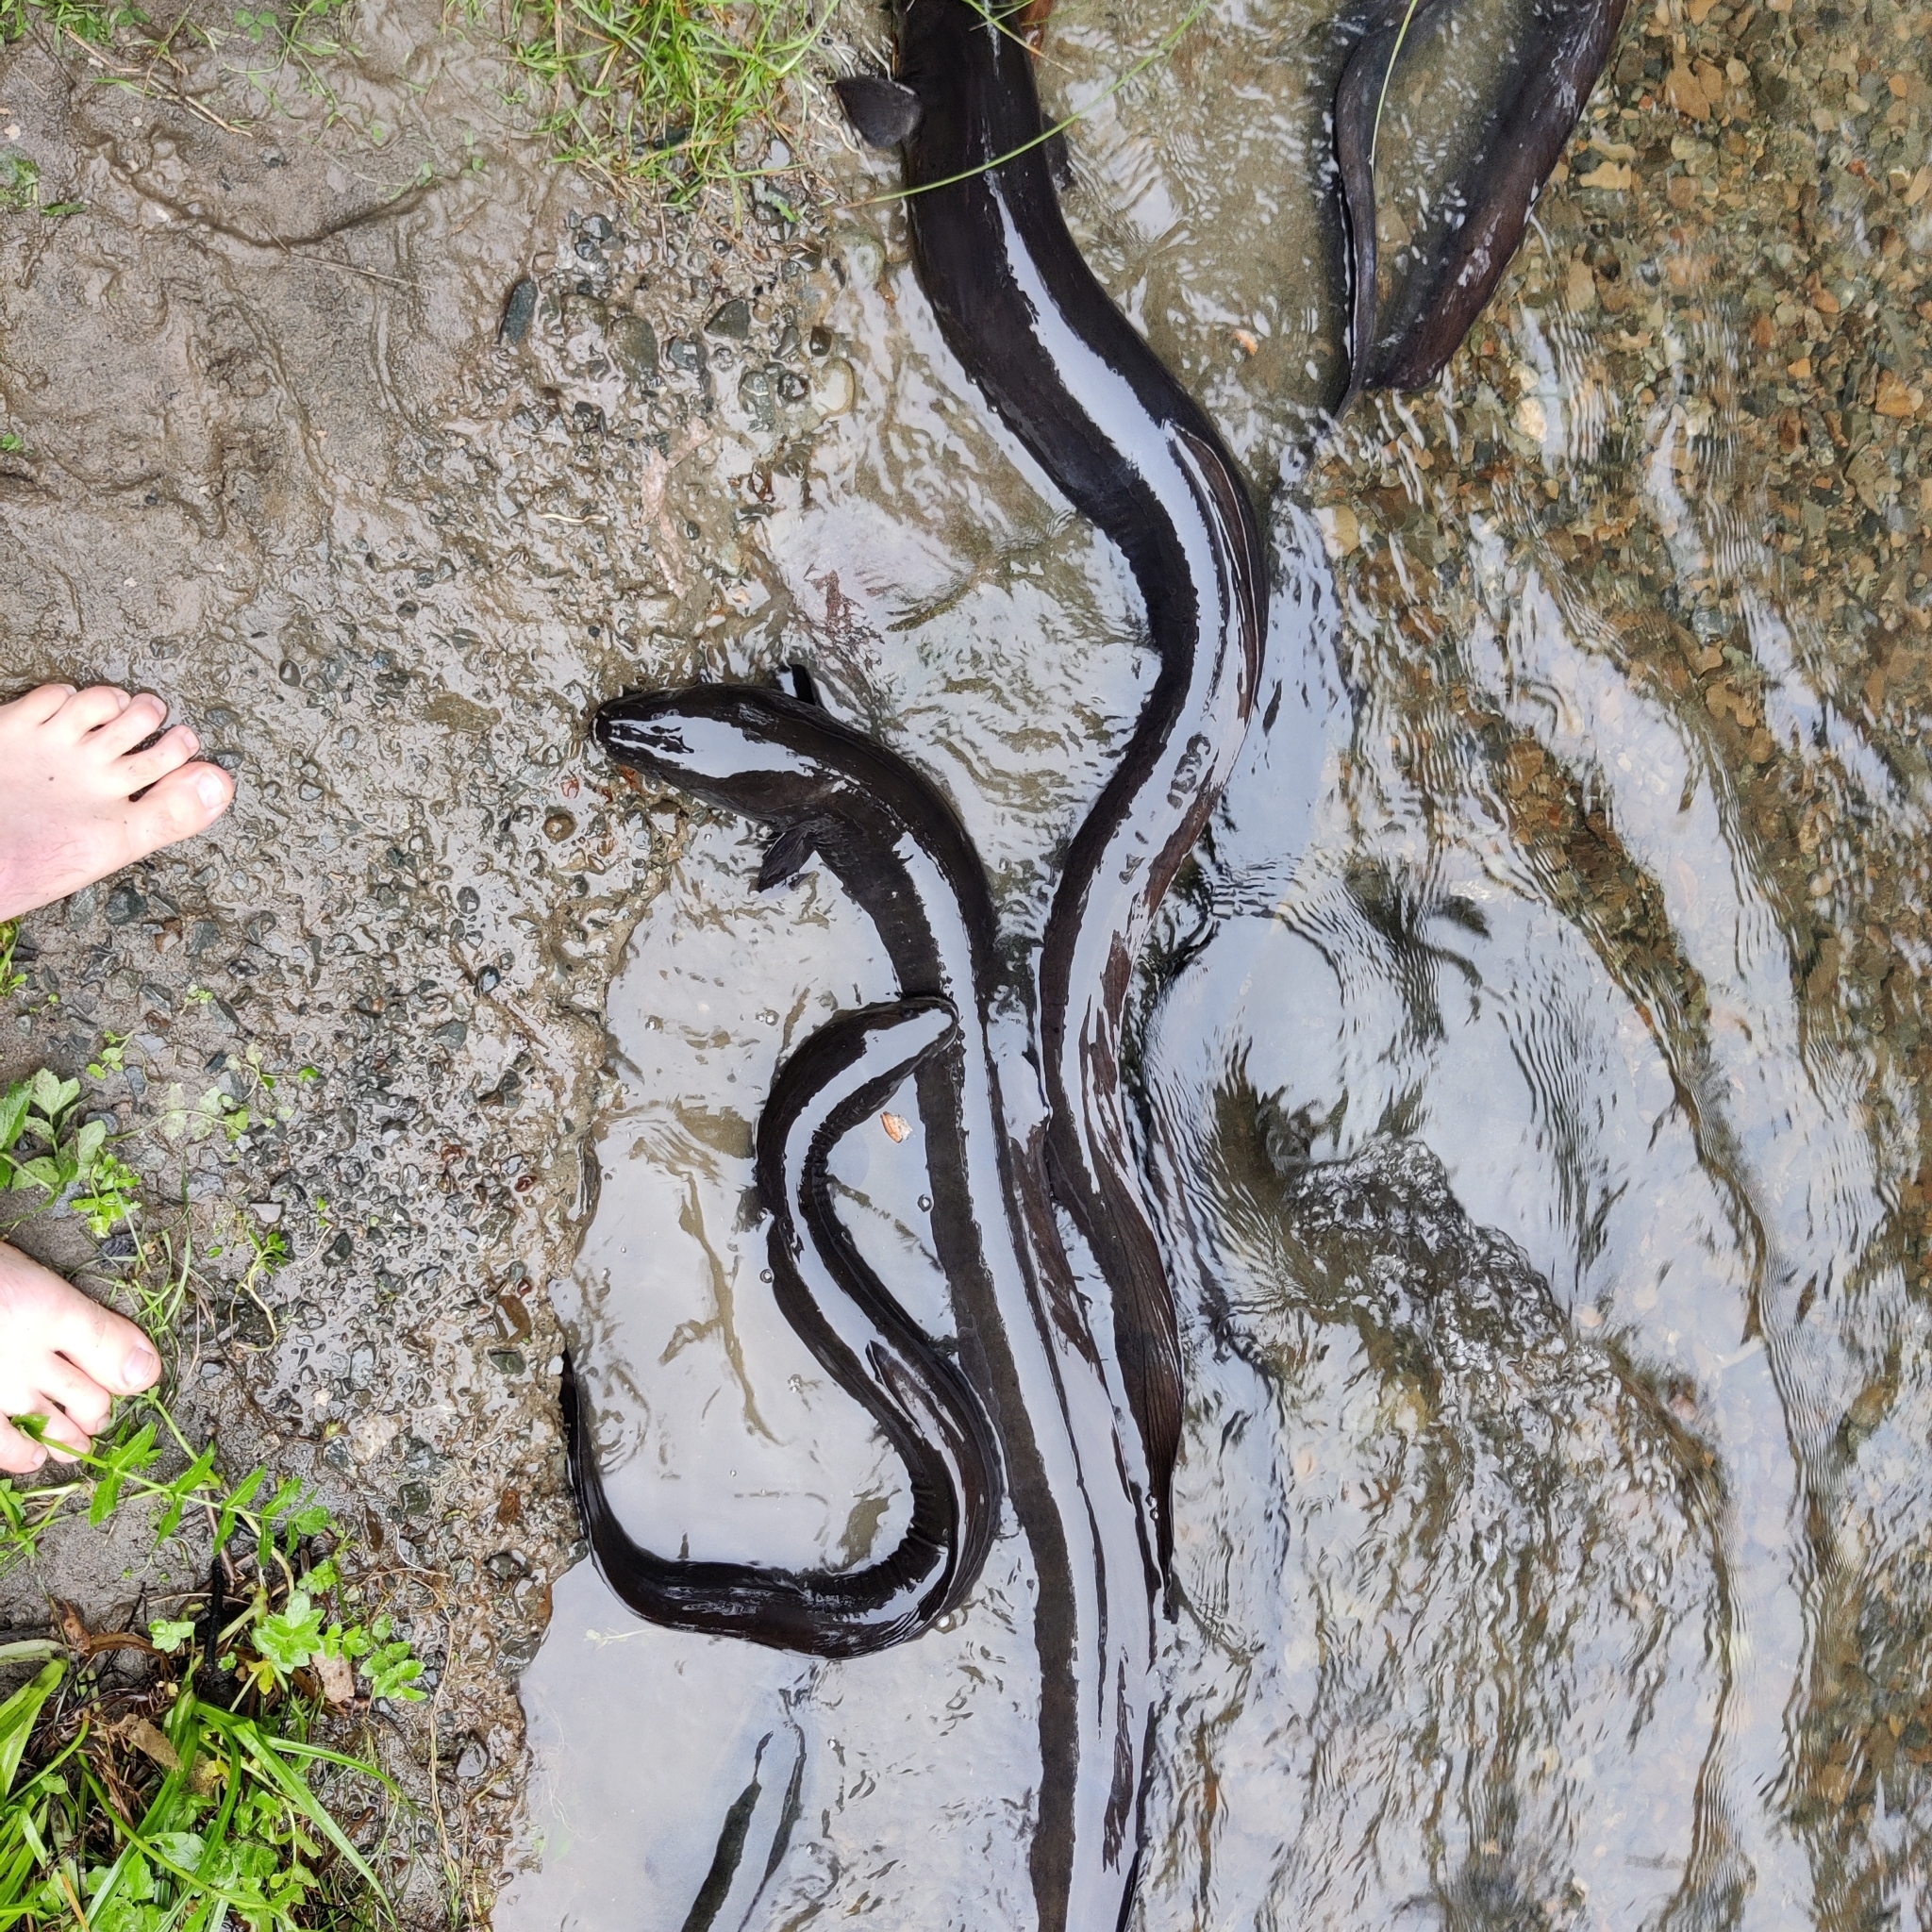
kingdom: Animalia
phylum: Chordata
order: Anguilliformes
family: Anguillidae
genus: Anguilla
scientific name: Anguilla dieffenbachii
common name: New zealand longfin eel
